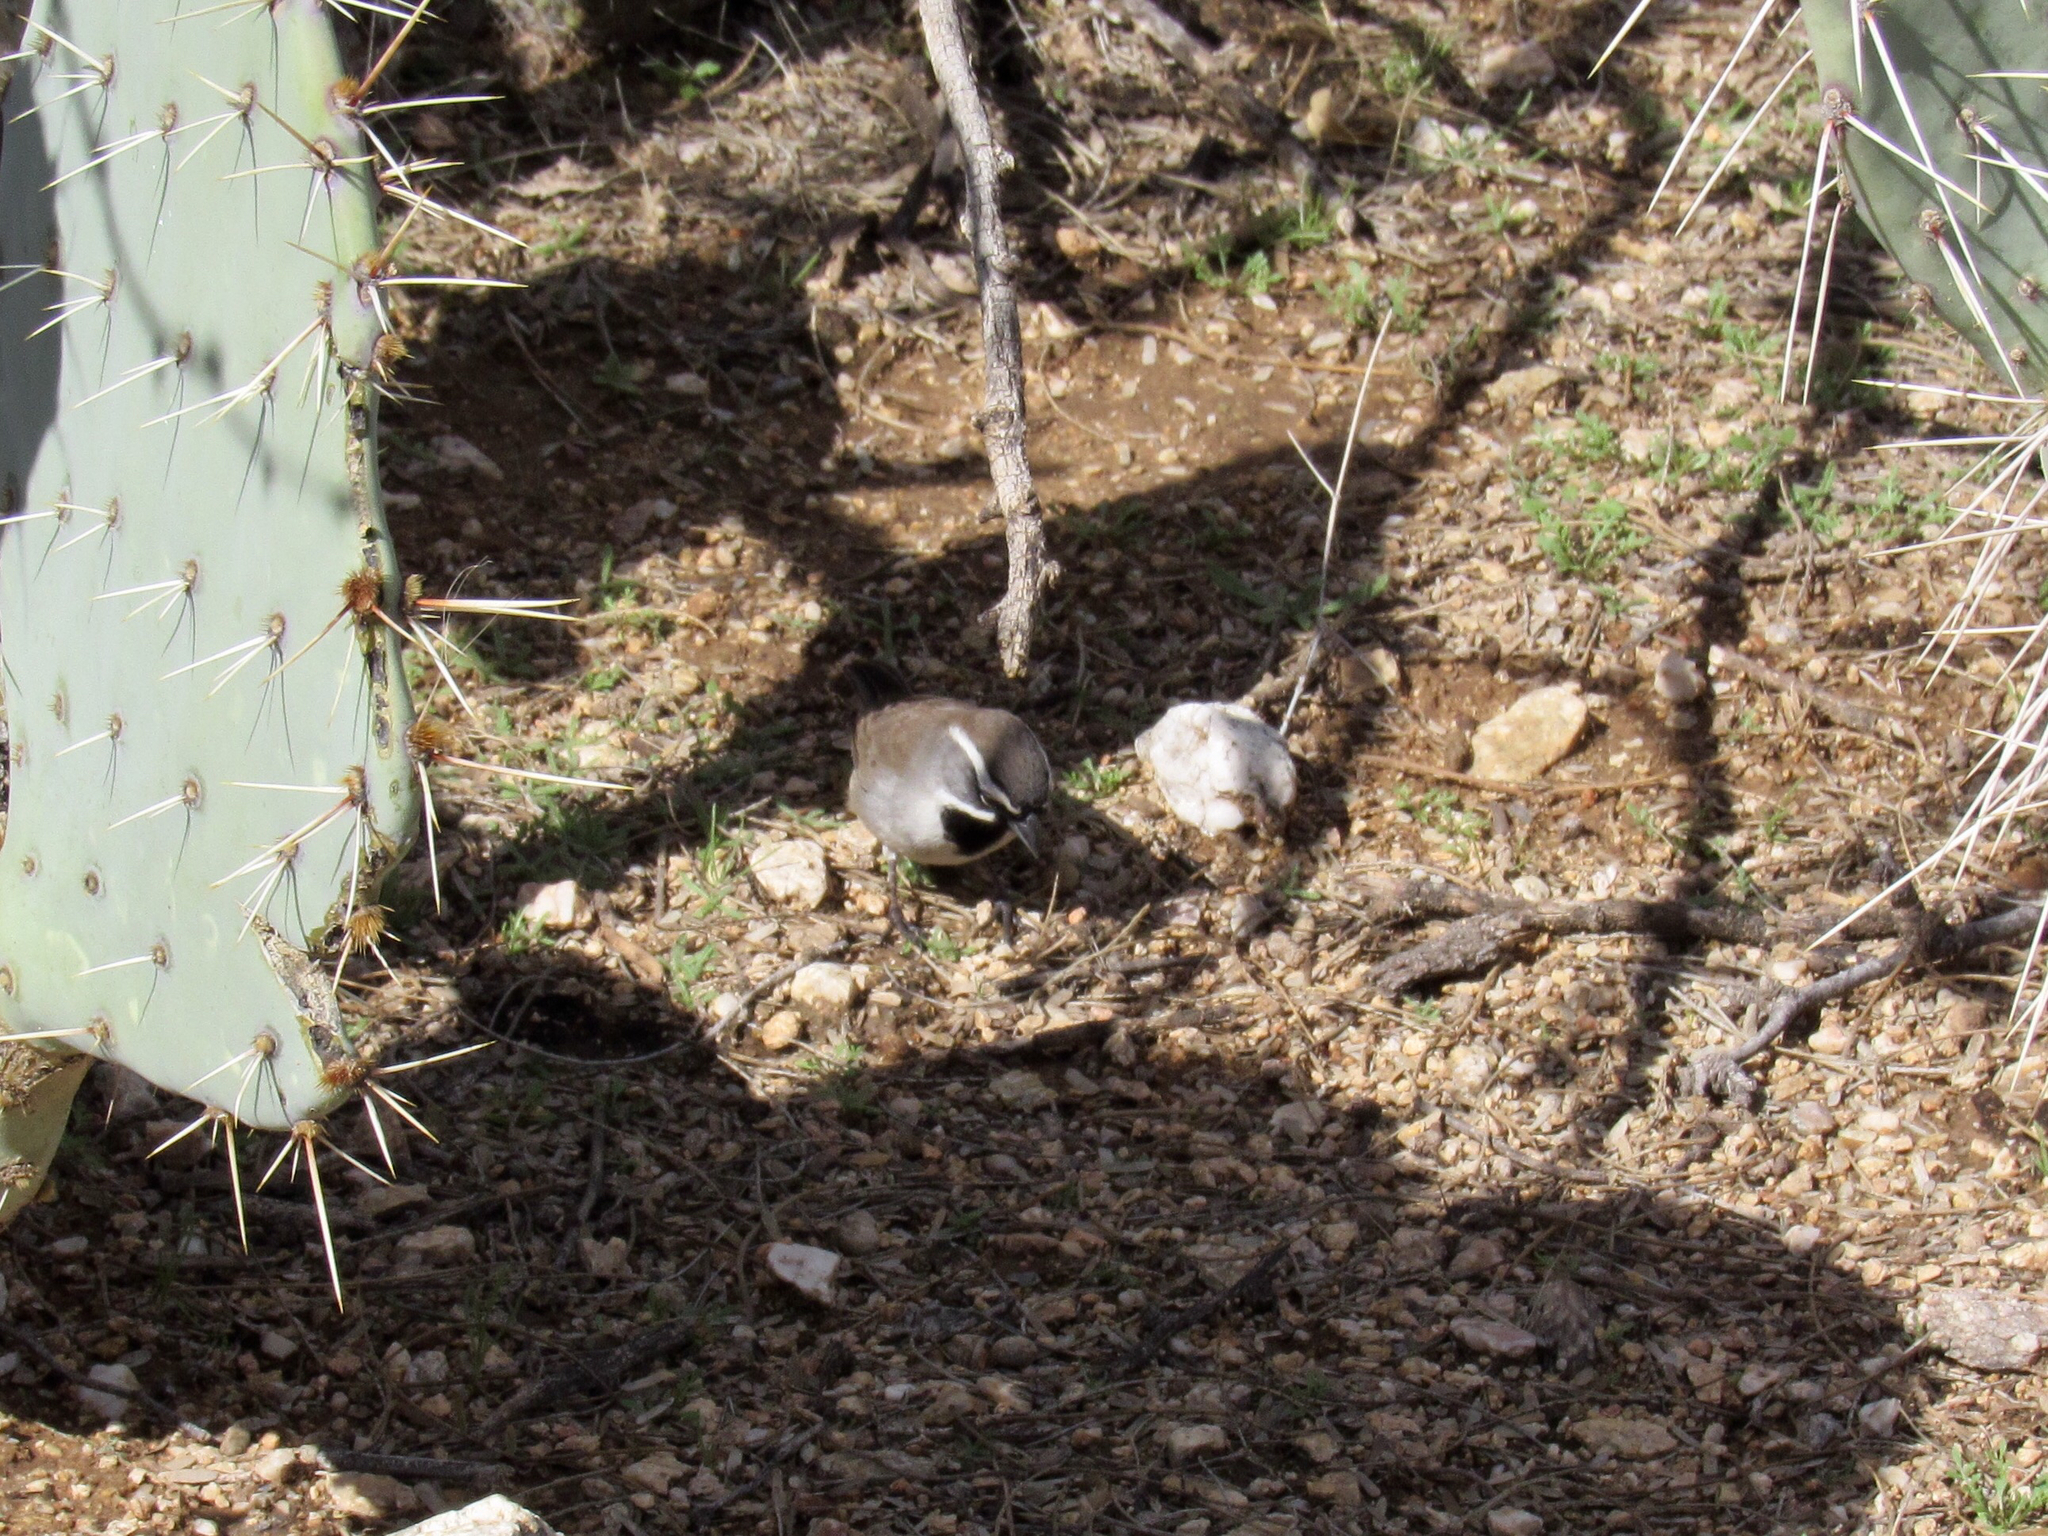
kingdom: Animalia
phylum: Chordata
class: Aves
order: Passeriformes
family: Passerellidae
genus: Amphispiza
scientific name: Amphispiza bilineata
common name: Black-throated sparrow
